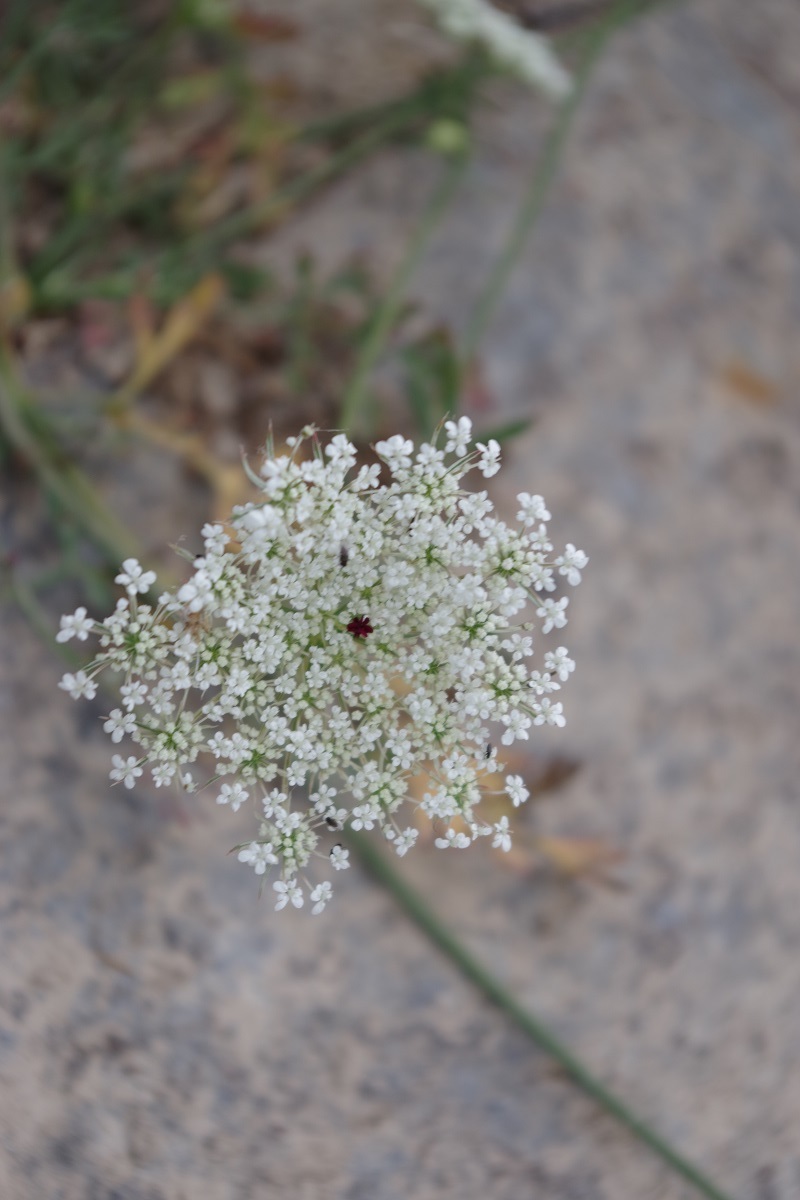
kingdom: Plantae
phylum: Tracheophyta
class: Magnoliopsida
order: Apiales
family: Apiaceae
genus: Daucus
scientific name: Daucus carota
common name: Wild carrot
